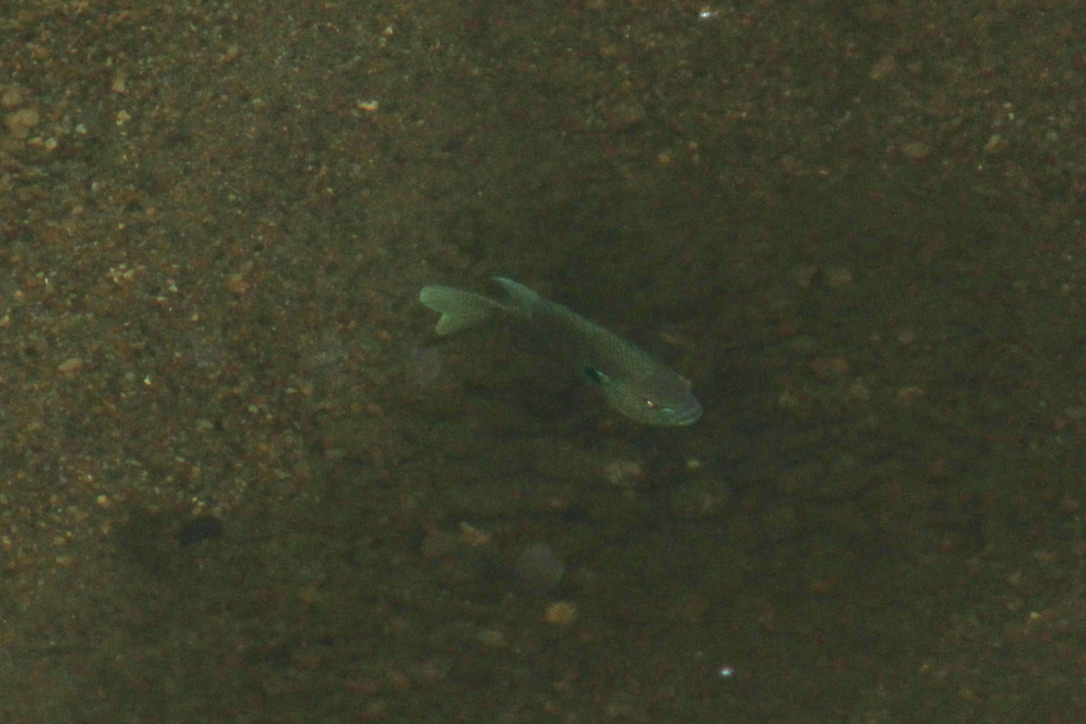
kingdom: Animalia
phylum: Chordata
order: Perciformes
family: Centrarchidae
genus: Lepomis
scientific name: Lepomis aquilensis
